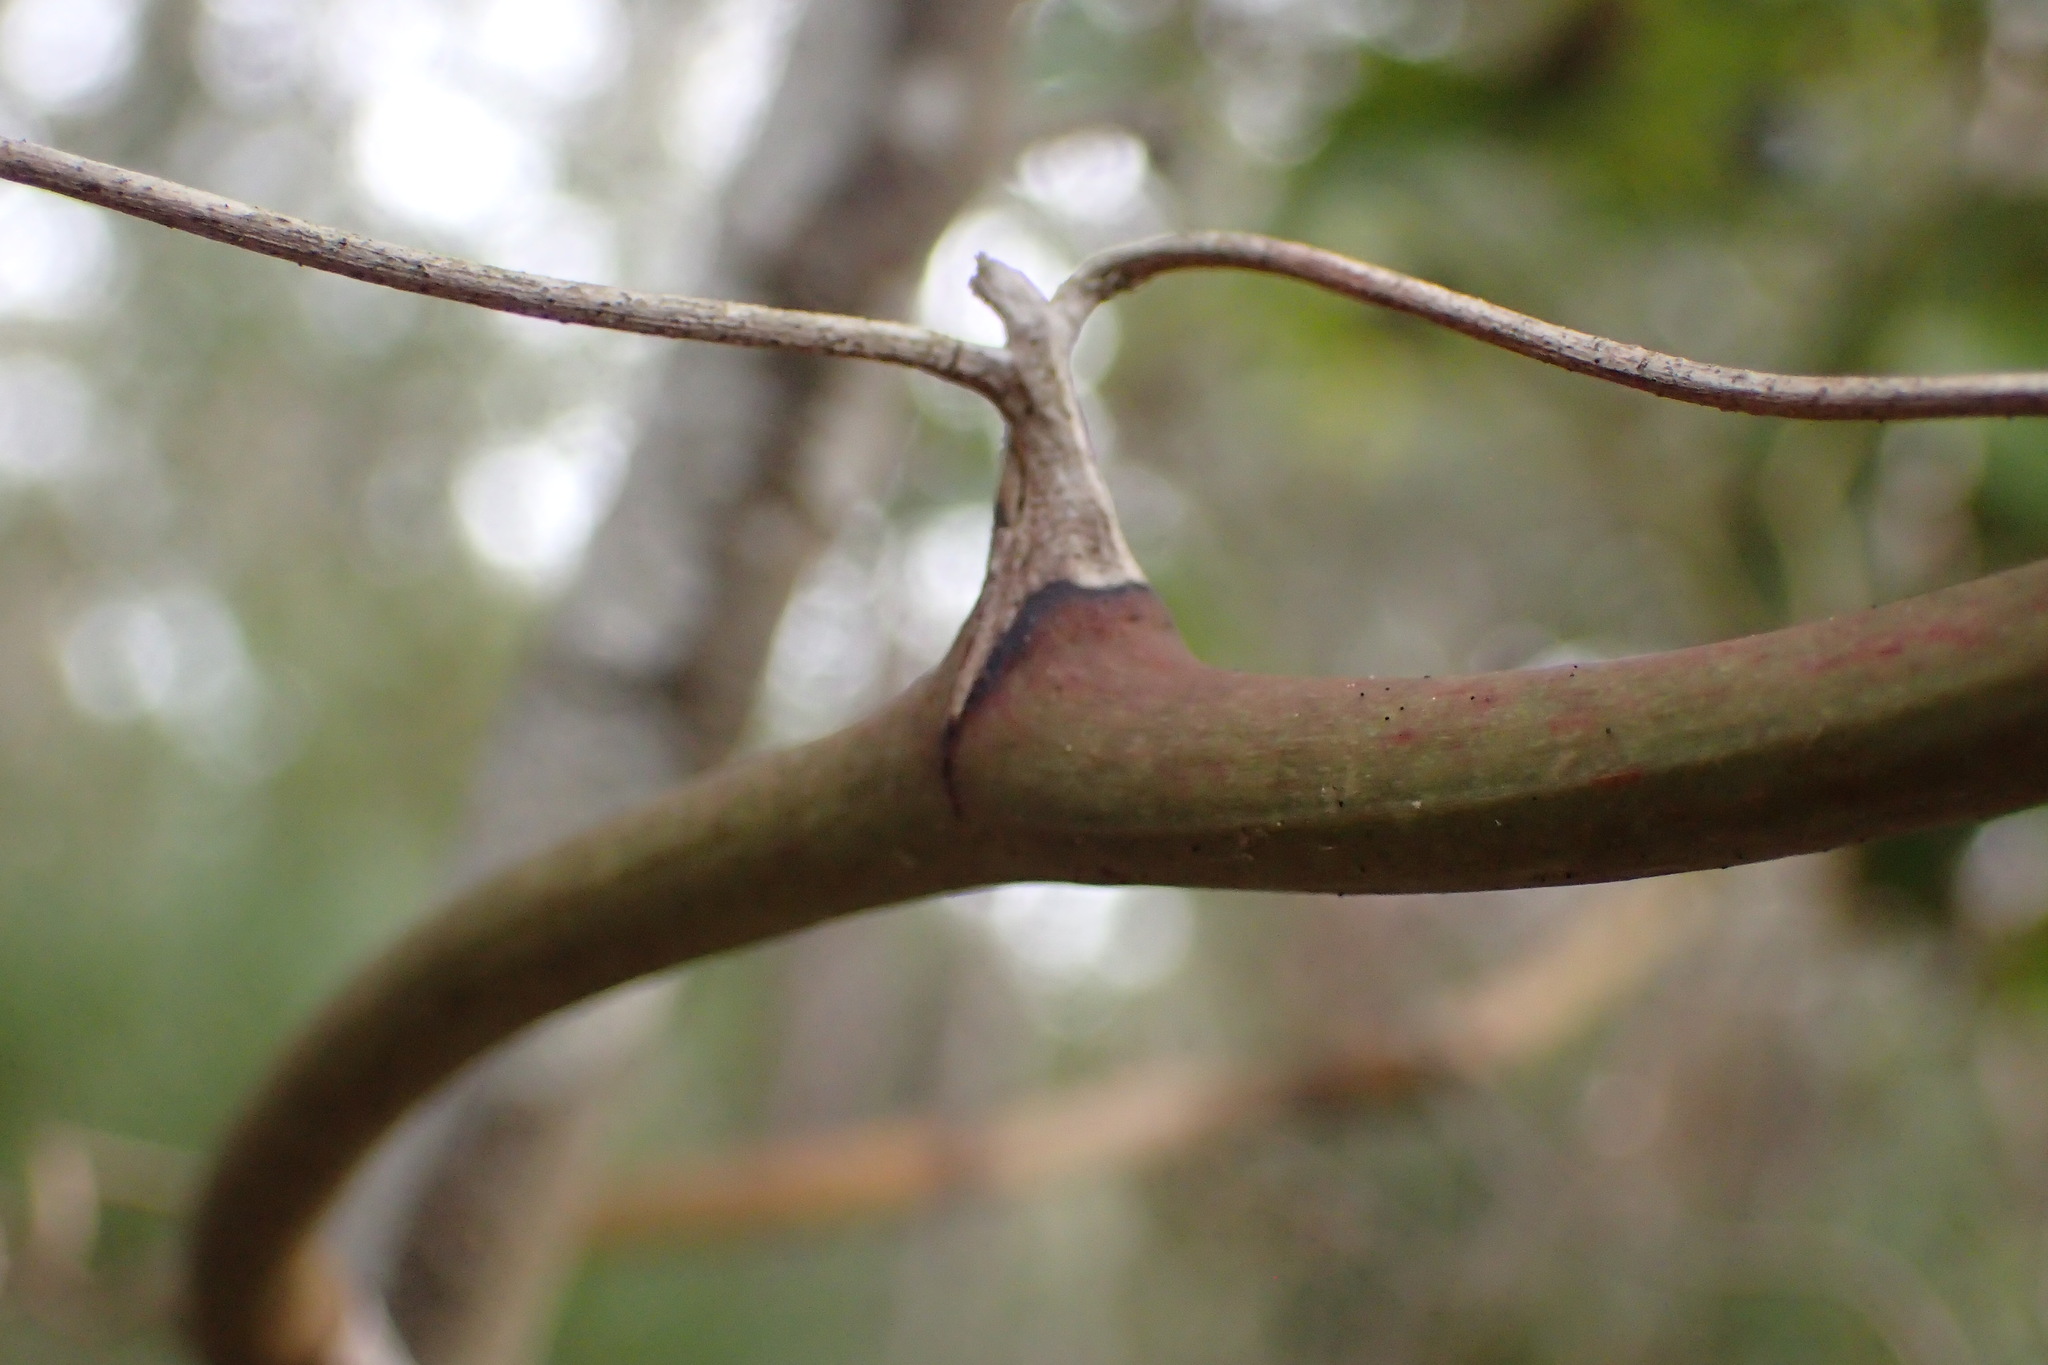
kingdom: Plantae
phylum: Tracheophyta
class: Liliopsida
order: Liliales
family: Smilacaceae
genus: Smilax
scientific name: Smilax auriculata
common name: Wild bamboo
